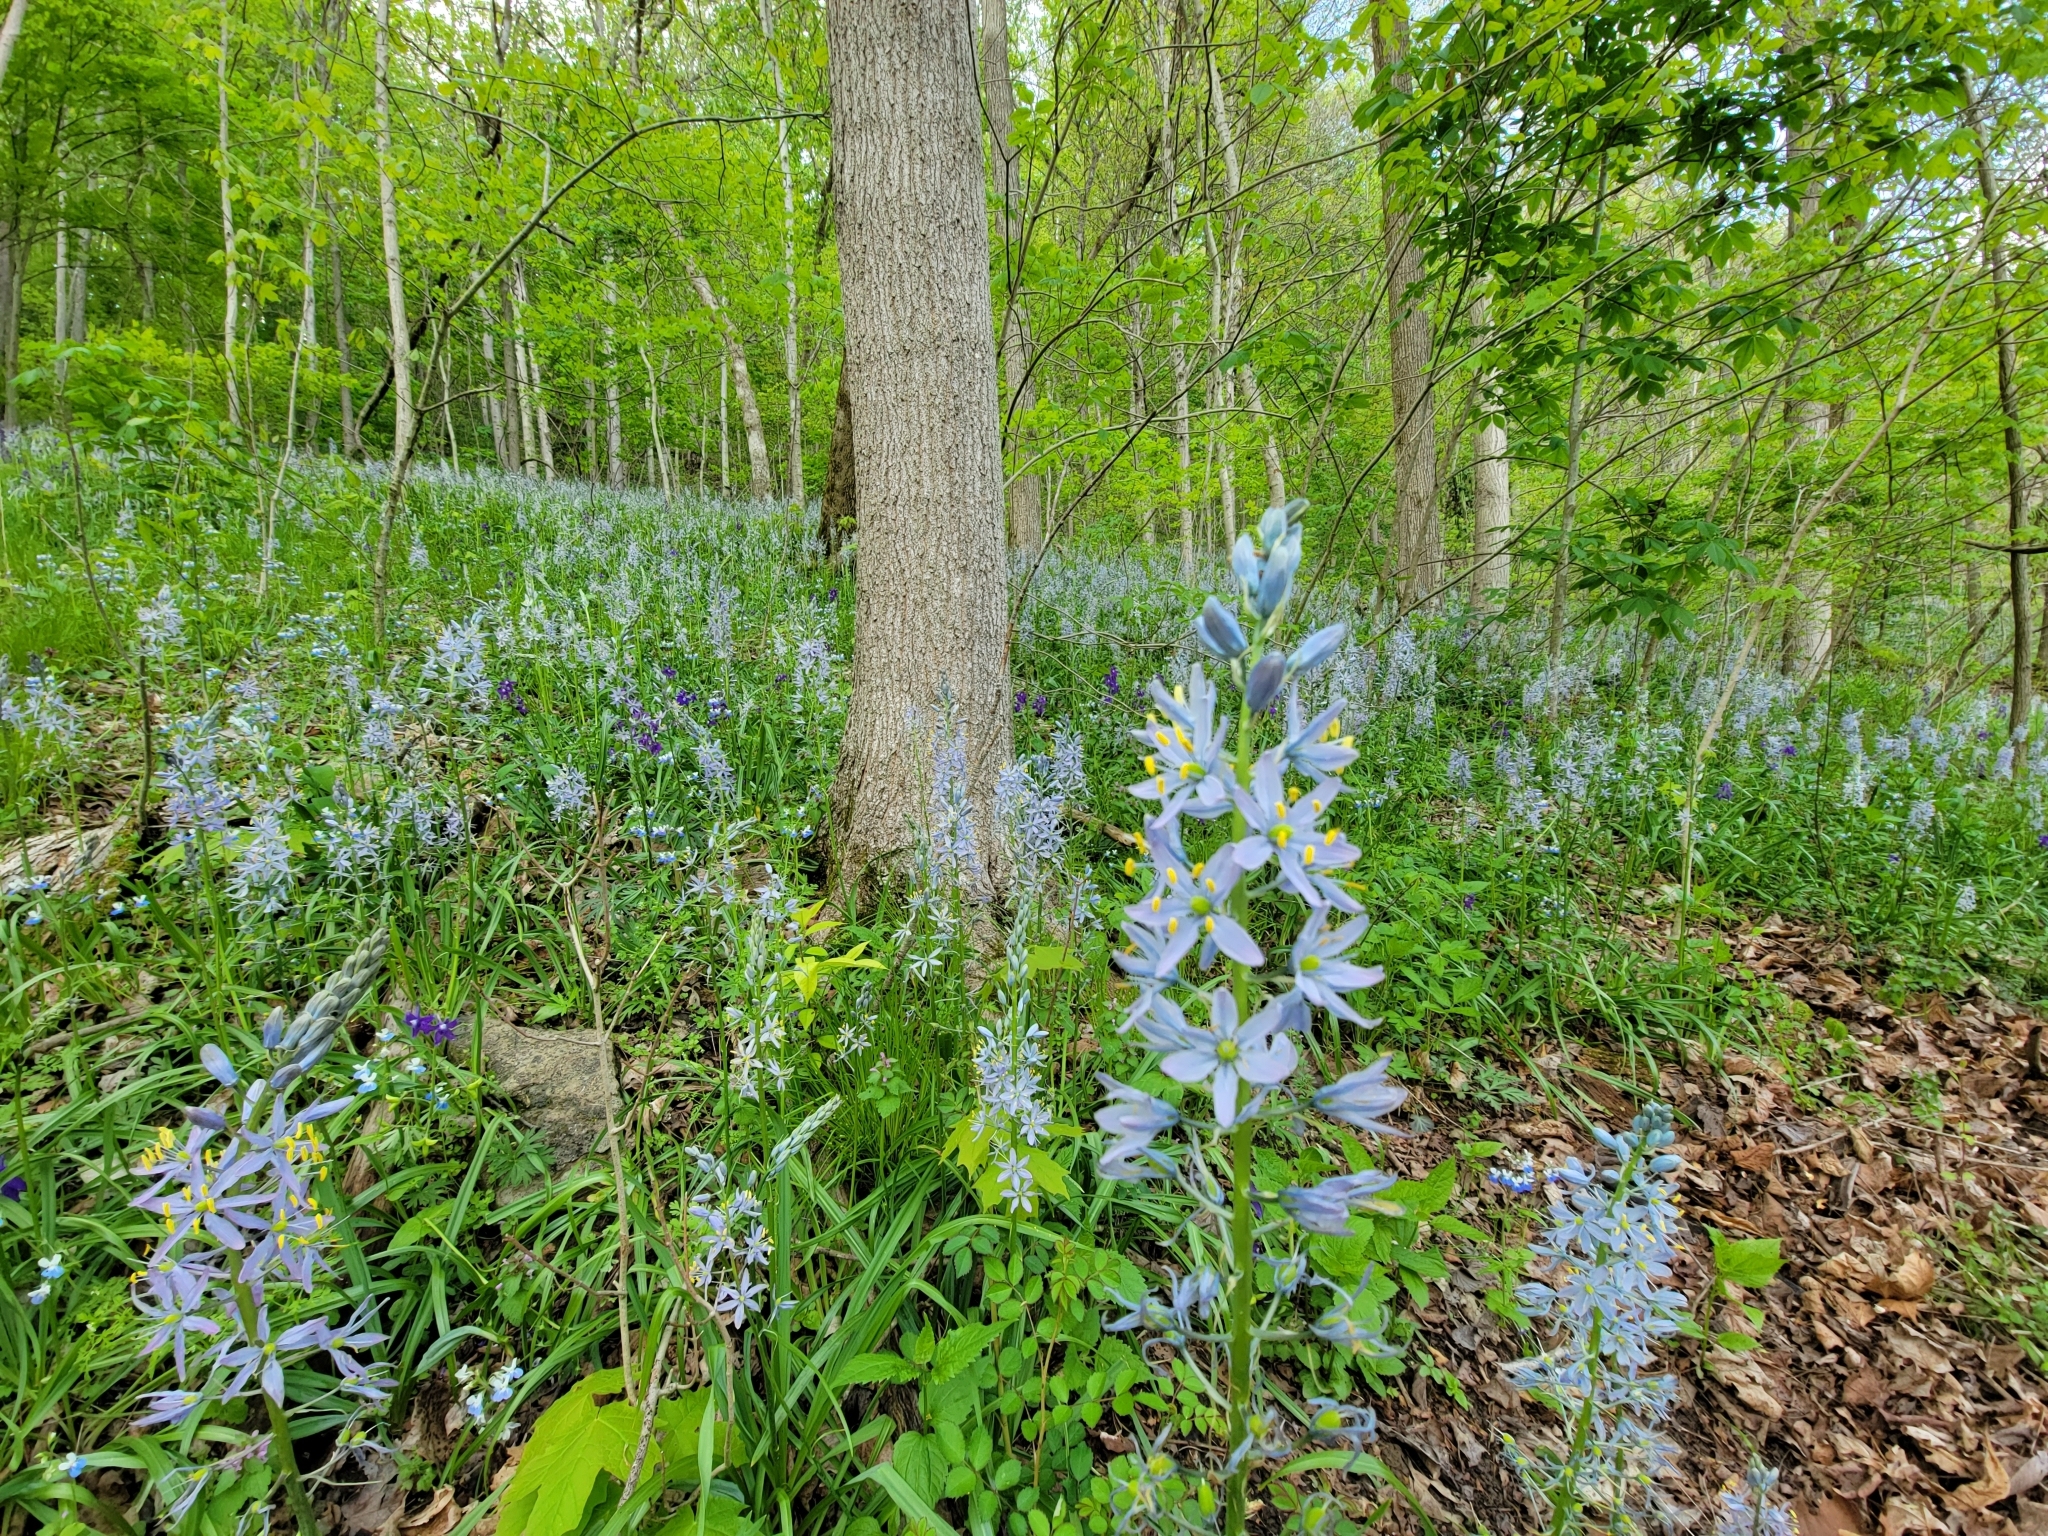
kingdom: Plantae
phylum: Tracheophyta
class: Liliopsida
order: Asparagales
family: Asparagaceae
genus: Camassia
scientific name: Camassia scilloides
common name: Wild hyacinth
